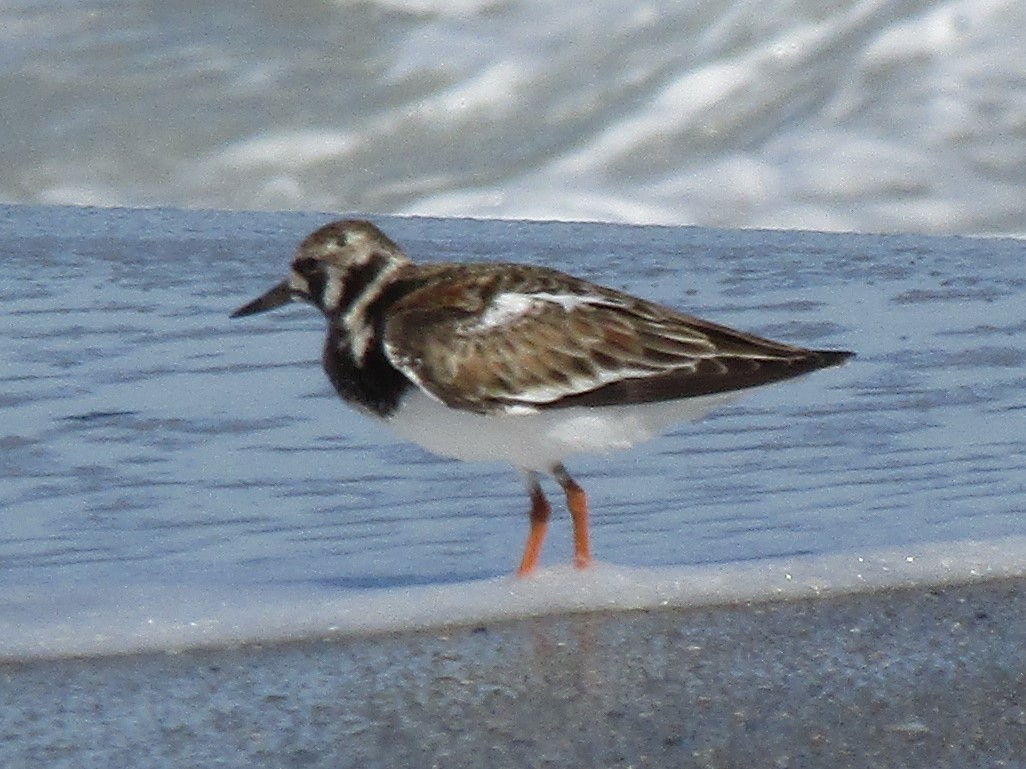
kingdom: Animalia
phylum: Chordata
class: Aves
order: Charadriiformes
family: Scolopacidae
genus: Arenaria
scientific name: Arenaria interpres
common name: Ruddy turnstone
